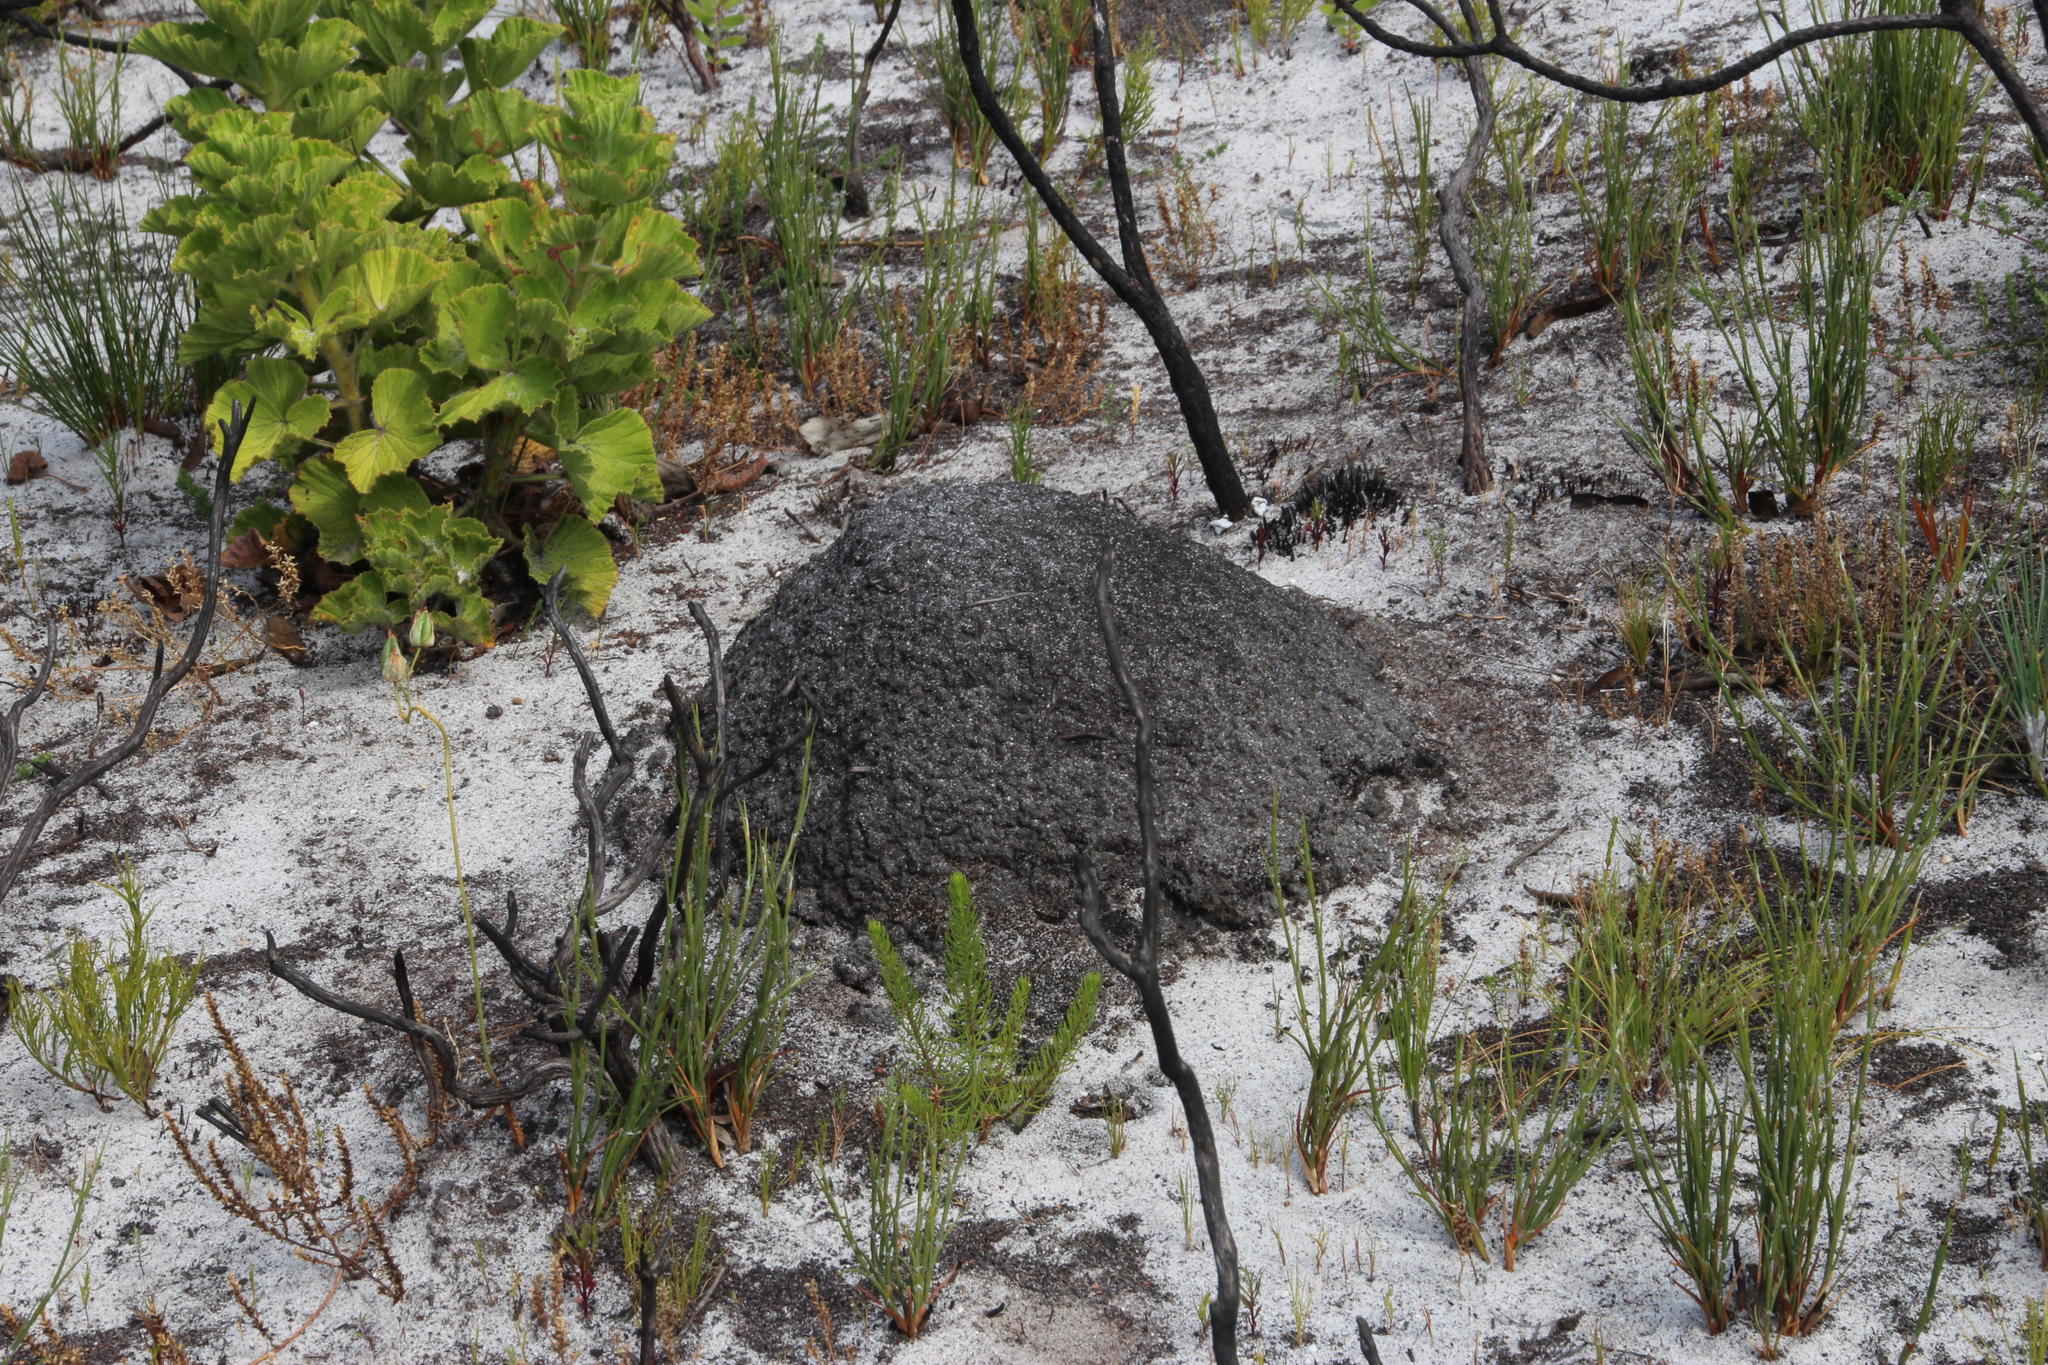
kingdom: Animalia
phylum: Arthropoda
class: Insecta
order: Blattodea
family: Termitidae
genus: Amitermes
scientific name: Amitermes hastatus
